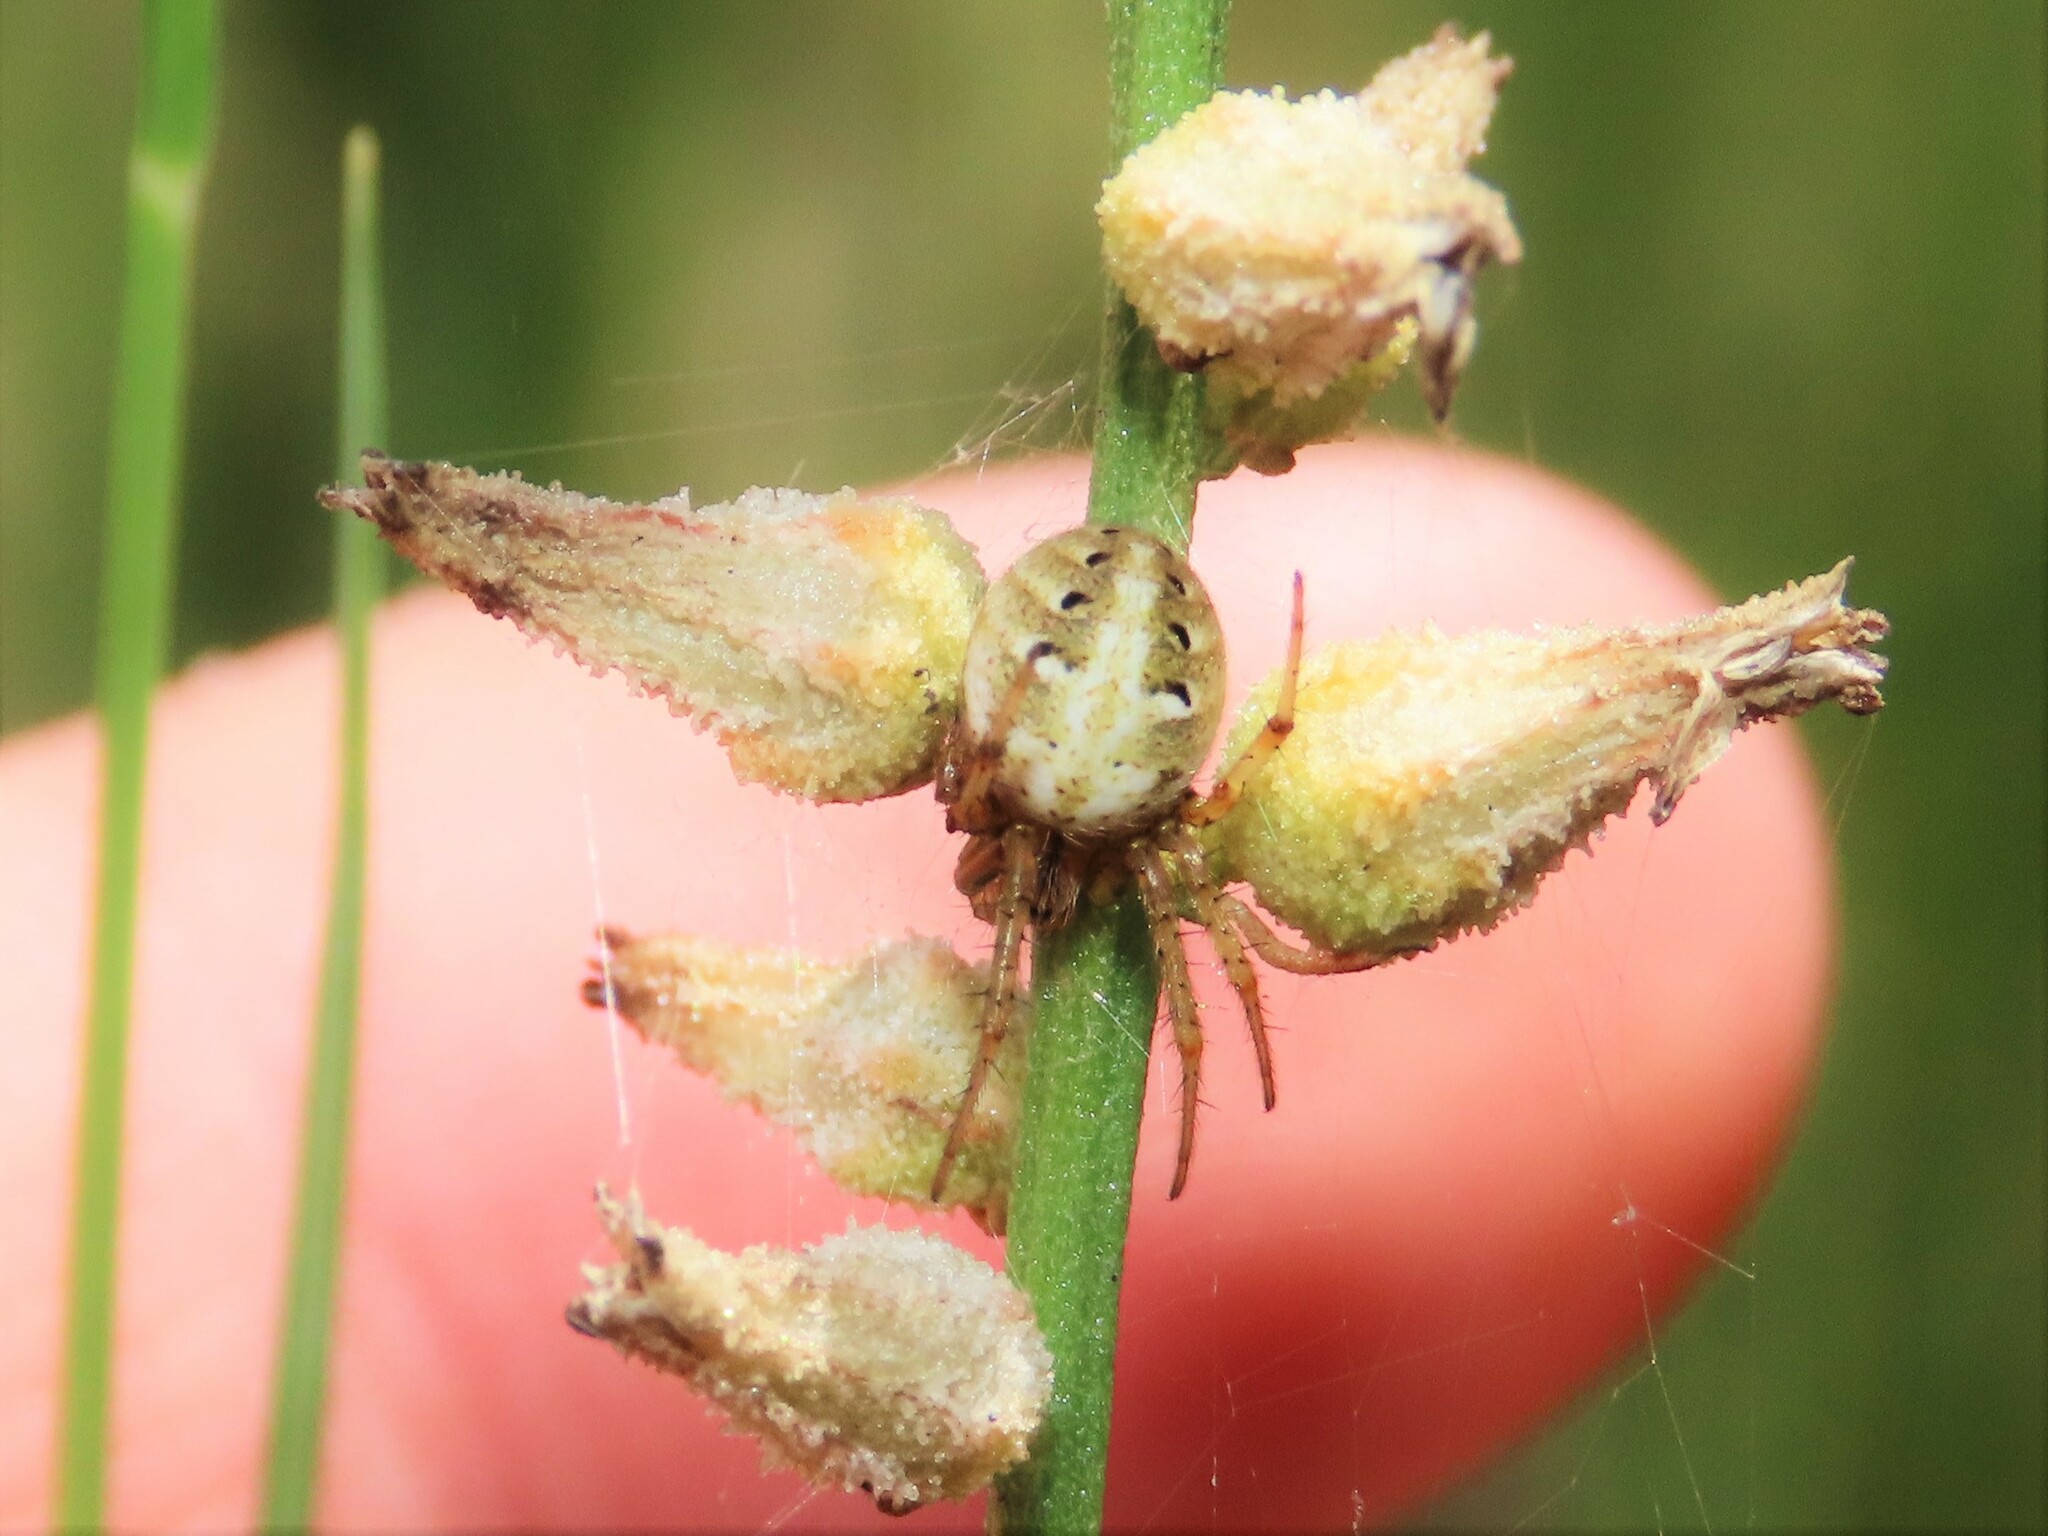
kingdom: Animalia
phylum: Arthropoda
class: Arachnida
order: Araneae
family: Araneidae
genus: Neoscona
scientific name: Neoscona arabesca
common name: Orb weavers
